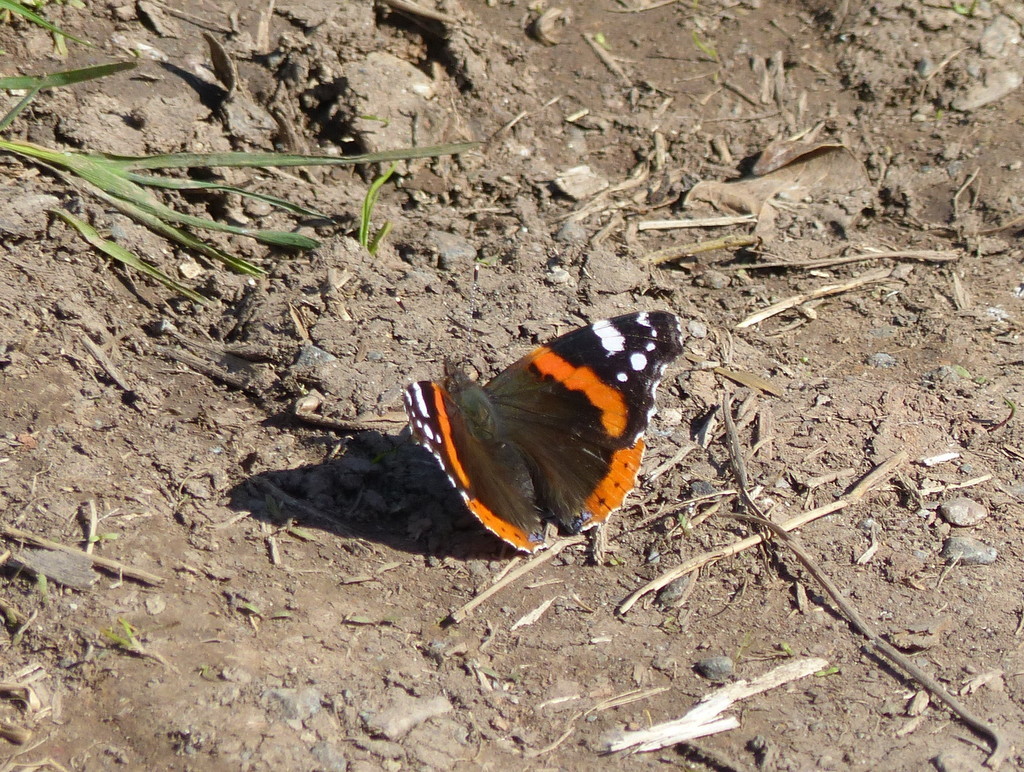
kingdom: Animalia
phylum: Arthropoda
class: Insecta
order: Lepidoptera
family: Nymphalidae
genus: Vanessa
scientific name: Vanessa atalanta
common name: Red admiral
